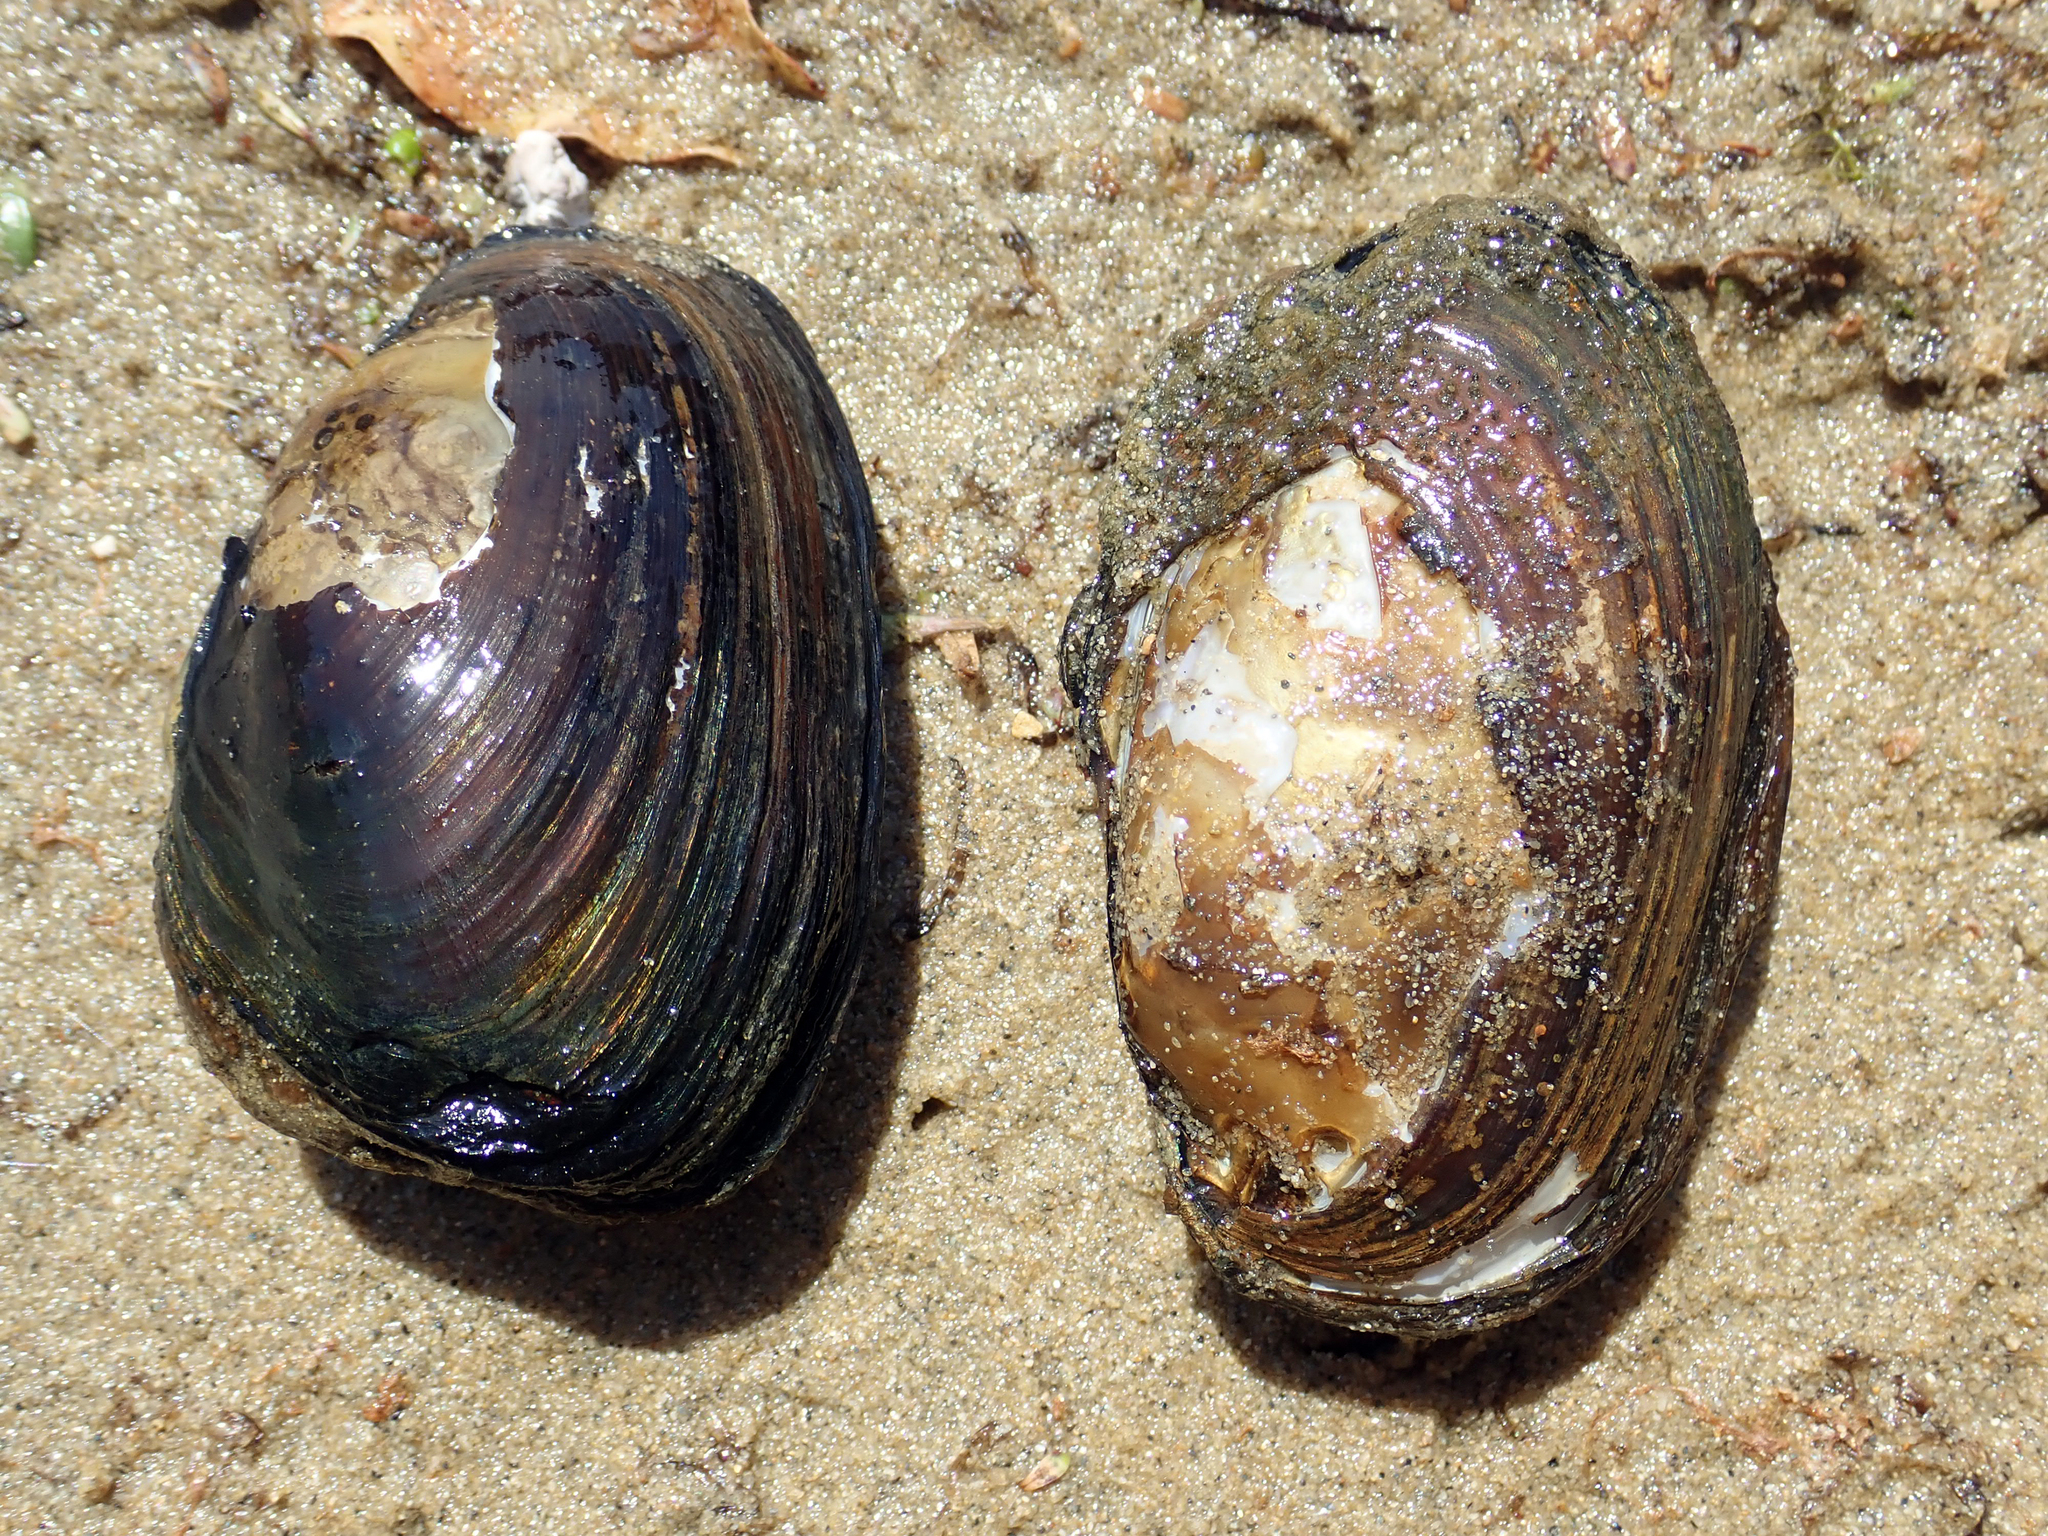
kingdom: Animalia
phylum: Mollusca
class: Bivalvia
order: Unionida
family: Hyriidae
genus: Echyridella
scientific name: Echyridella menziesii
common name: New zealand freshwater mussel
